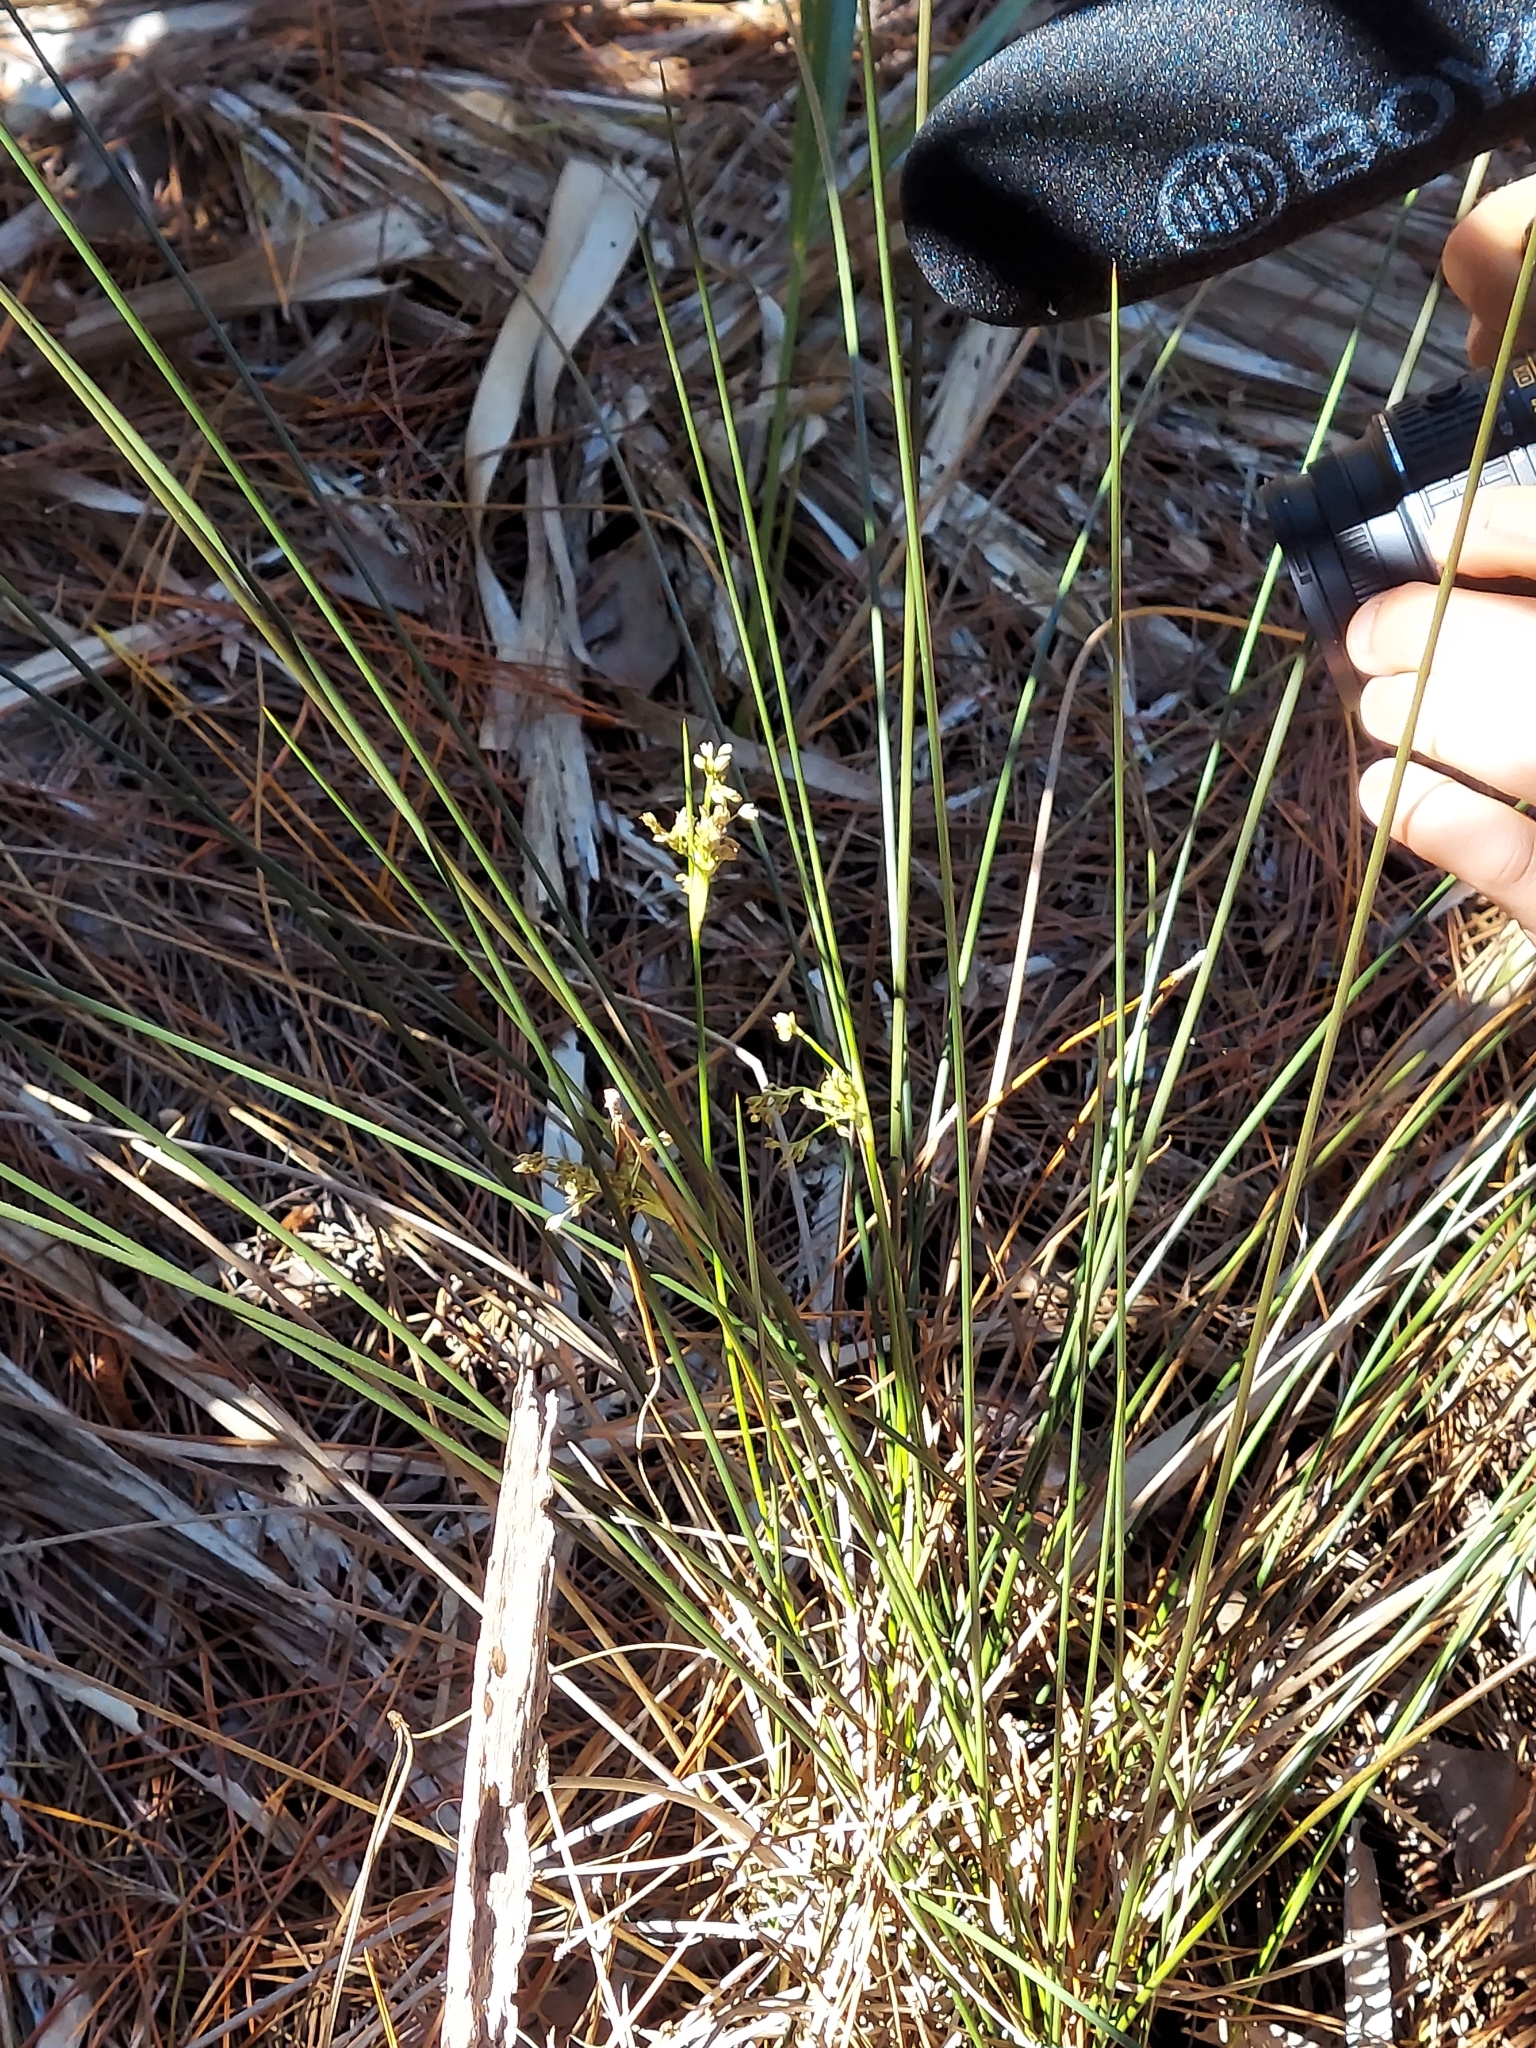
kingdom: Plantae
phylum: Tracheophyta
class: Liliopsida
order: Poales
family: Juncaceae
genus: Juncus
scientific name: Juncus roemerianus
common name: Roemer's rush
